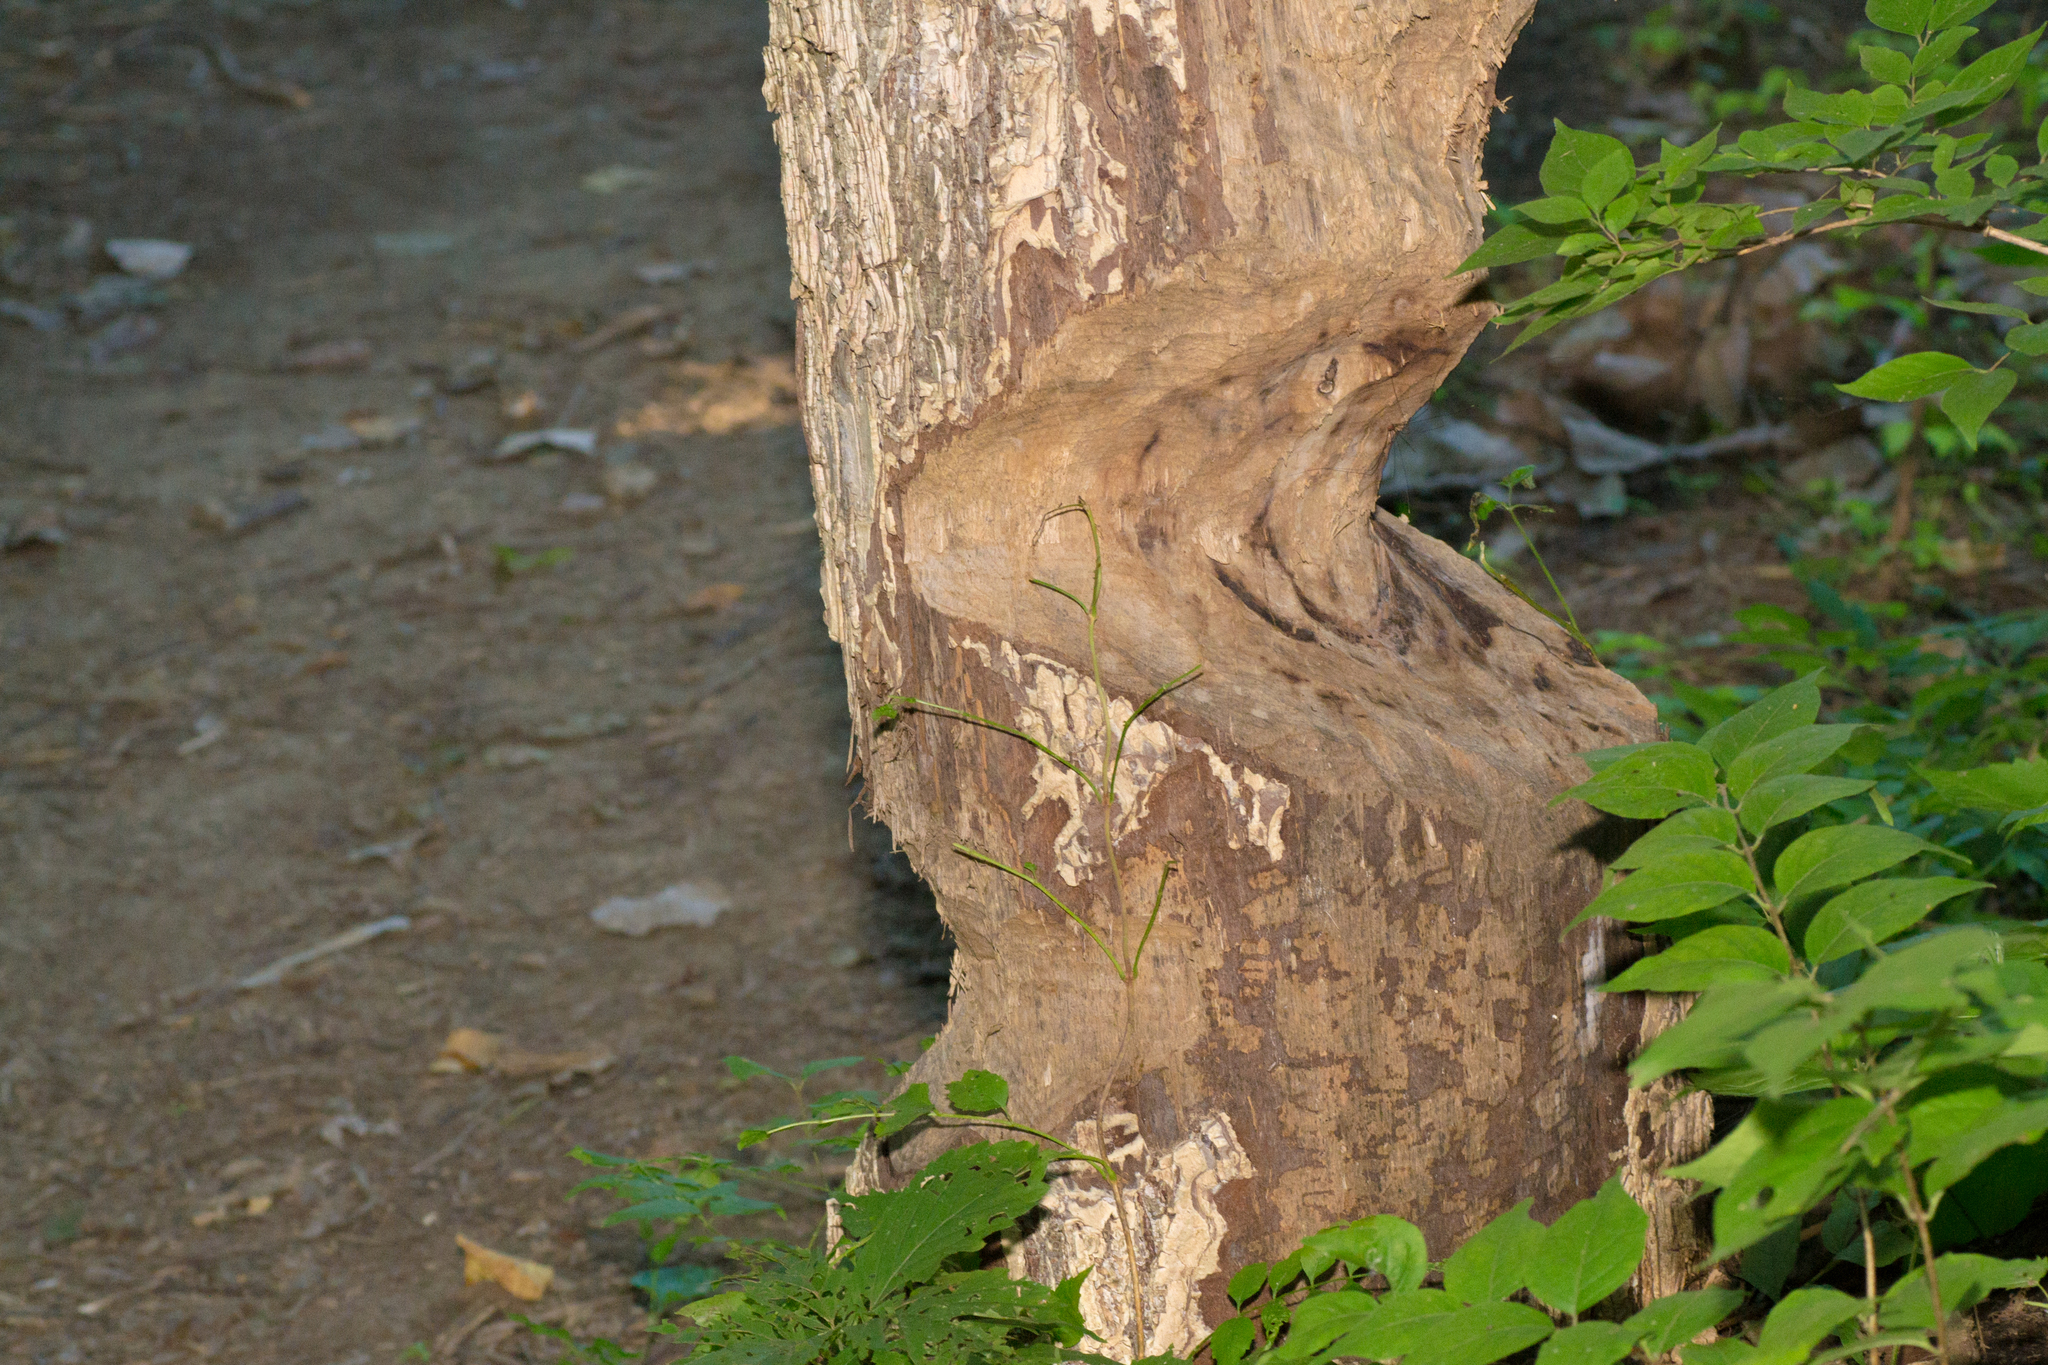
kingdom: Animalia
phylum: Chordata
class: Mammalia
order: Rodentia
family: Castoridae
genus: Castor
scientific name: Castor canadensis
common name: American beaver
